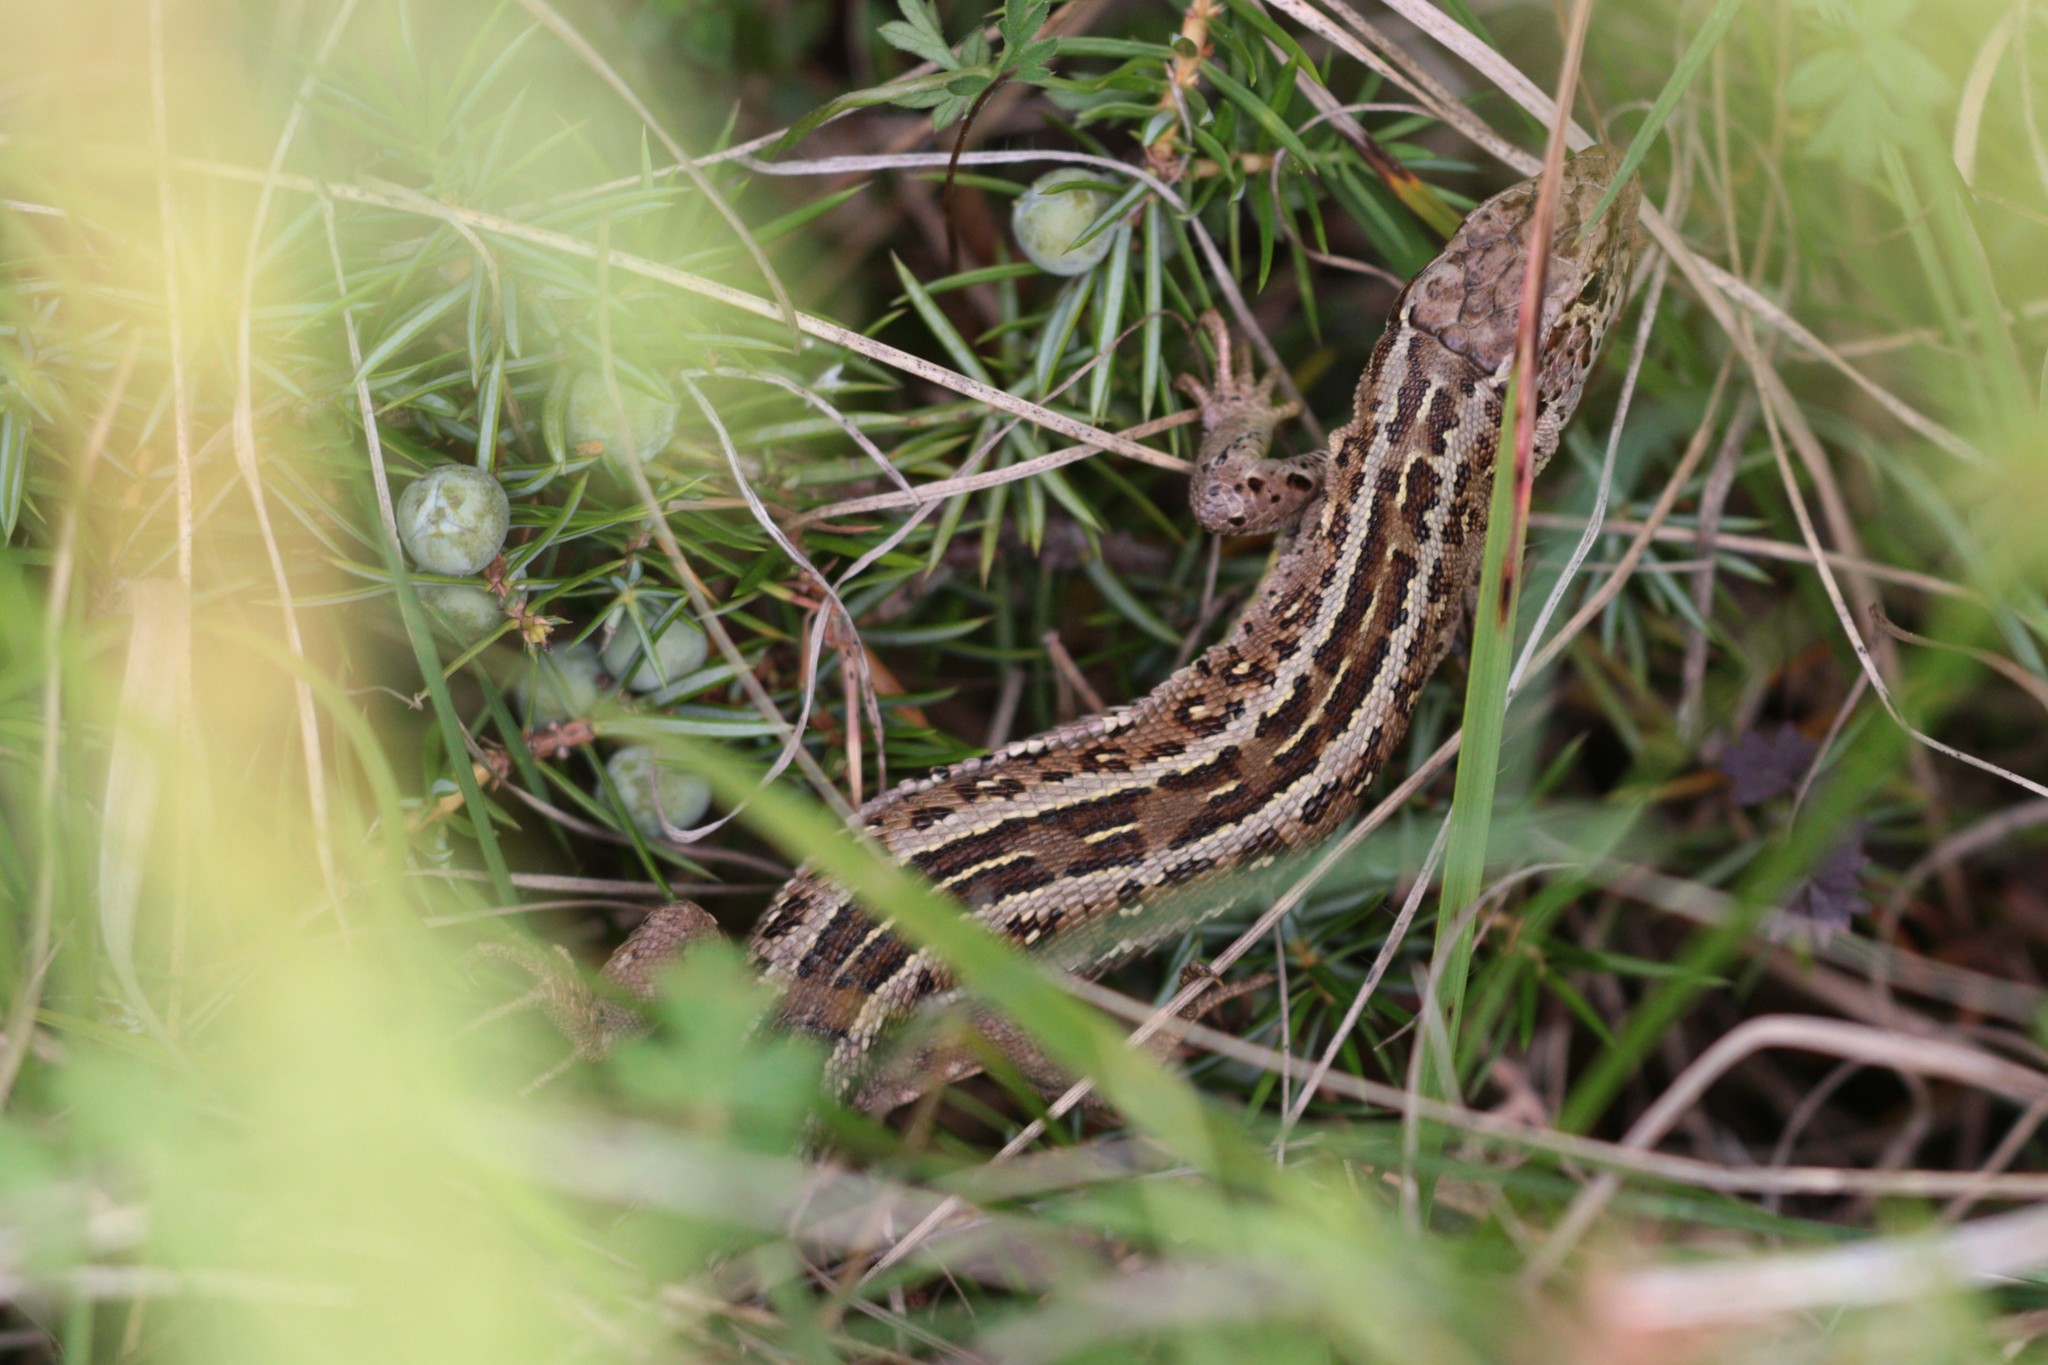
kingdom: Animalia
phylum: Chordata
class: Squamata
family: Lacertidae
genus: Lacerta
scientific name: Lacerta agilis
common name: Sand lizard
